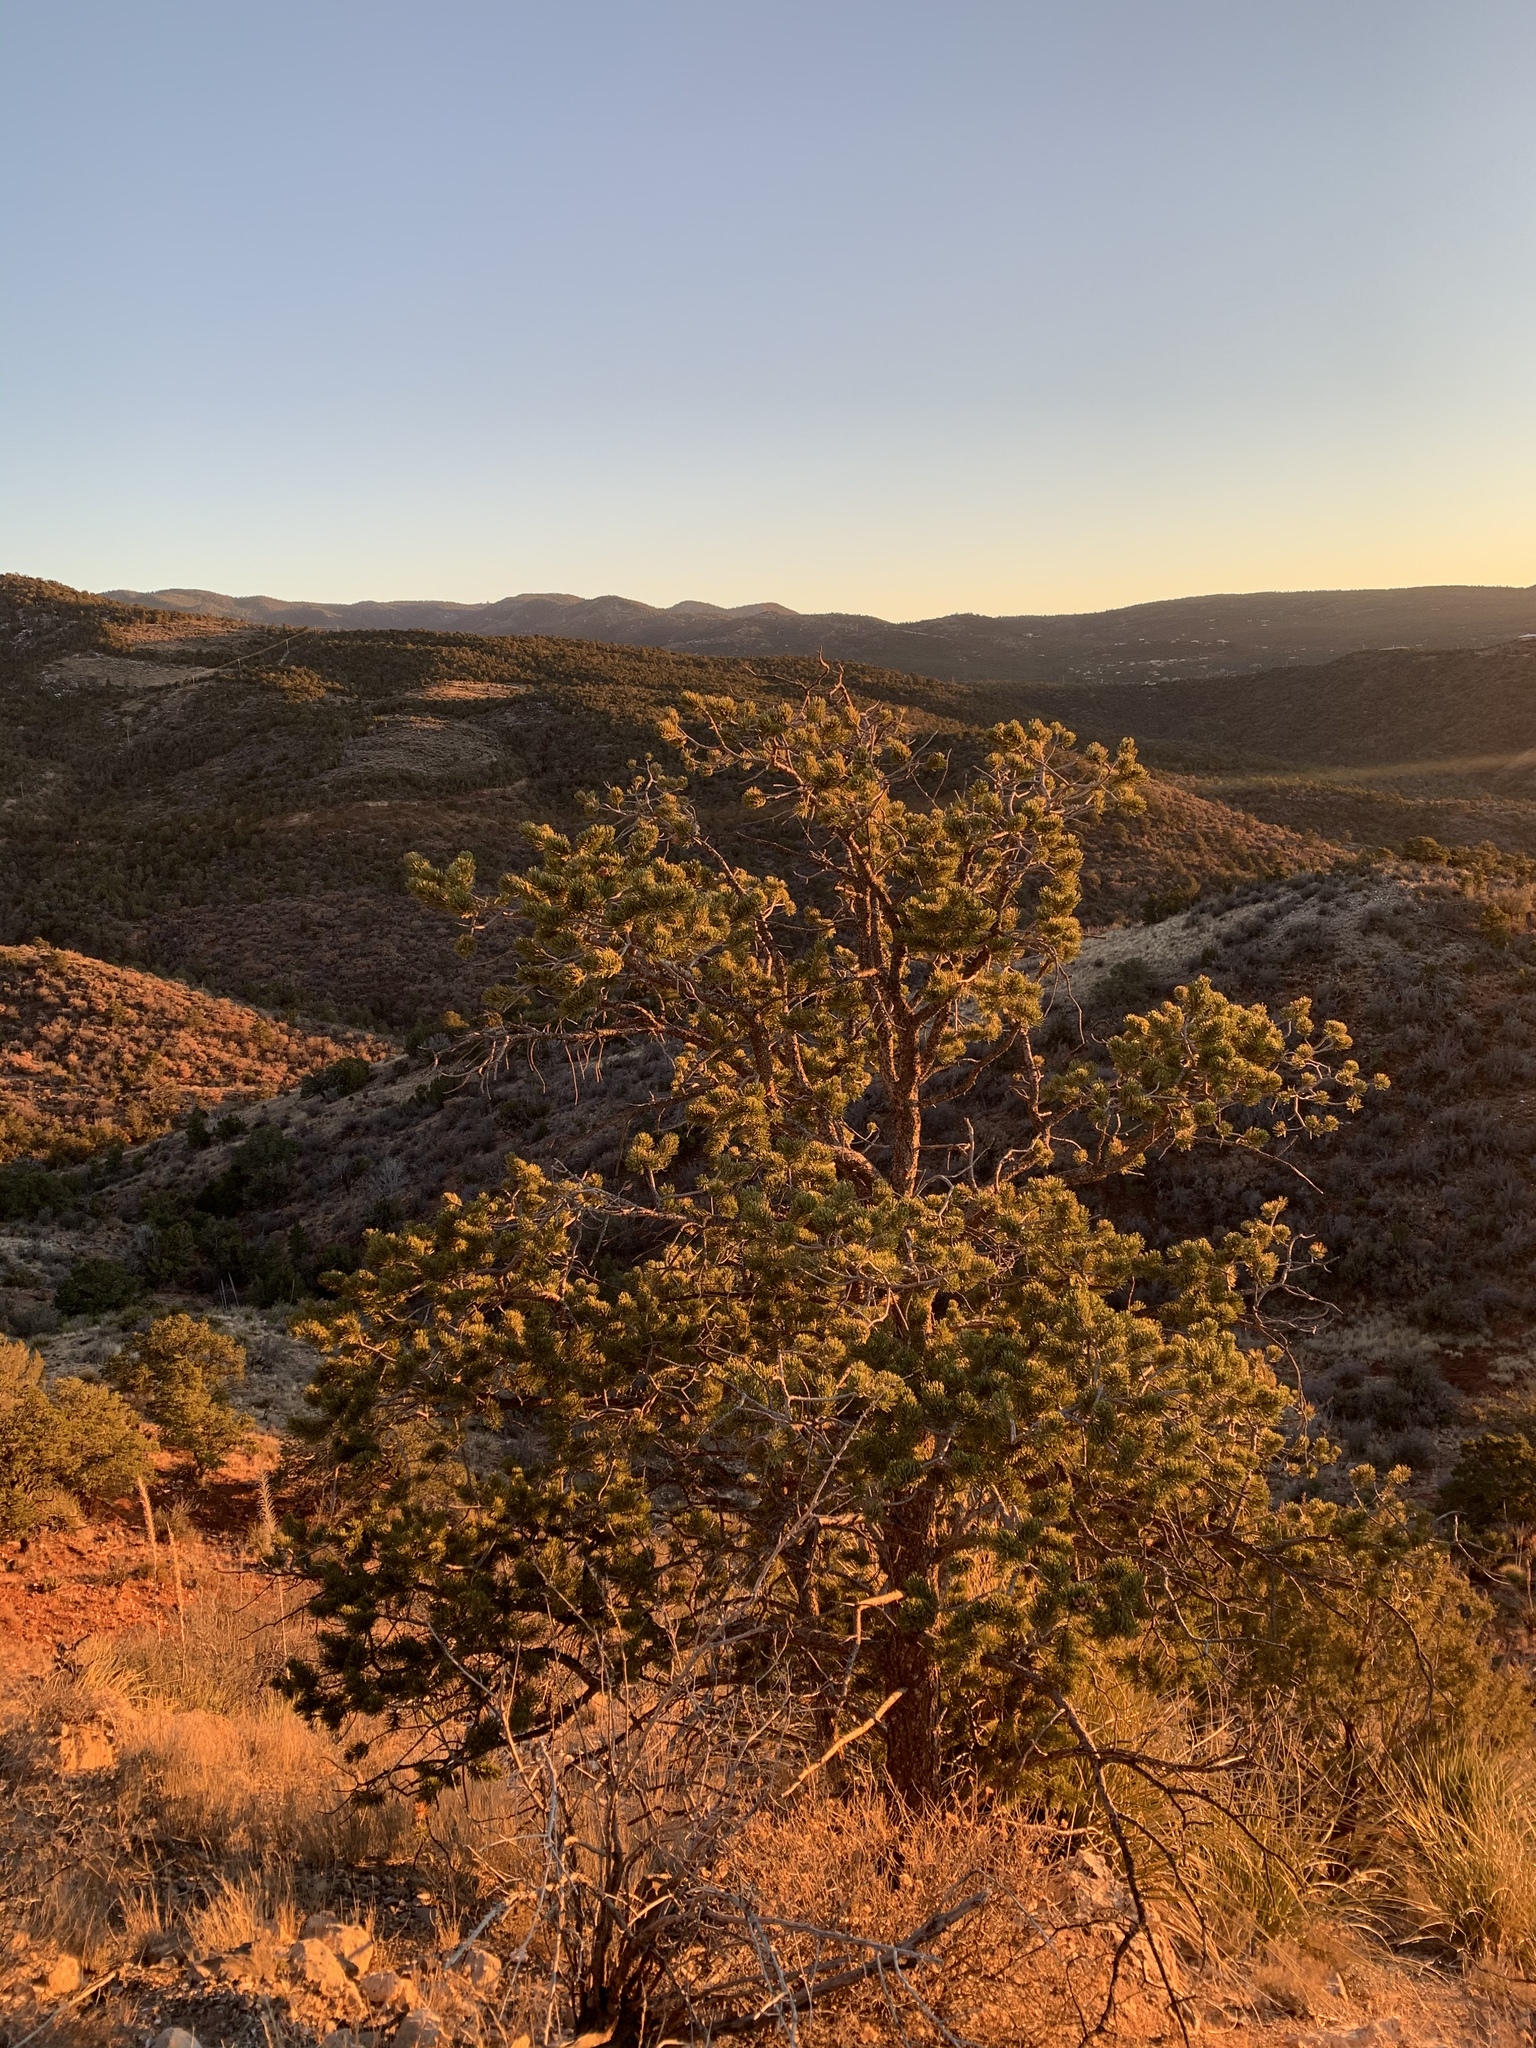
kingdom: Plantae
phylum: Tracheophyta
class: Pinopsida
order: Pinales
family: Pinaceae
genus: Pinus
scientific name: Pinus edulis
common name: Colorado pinyon
